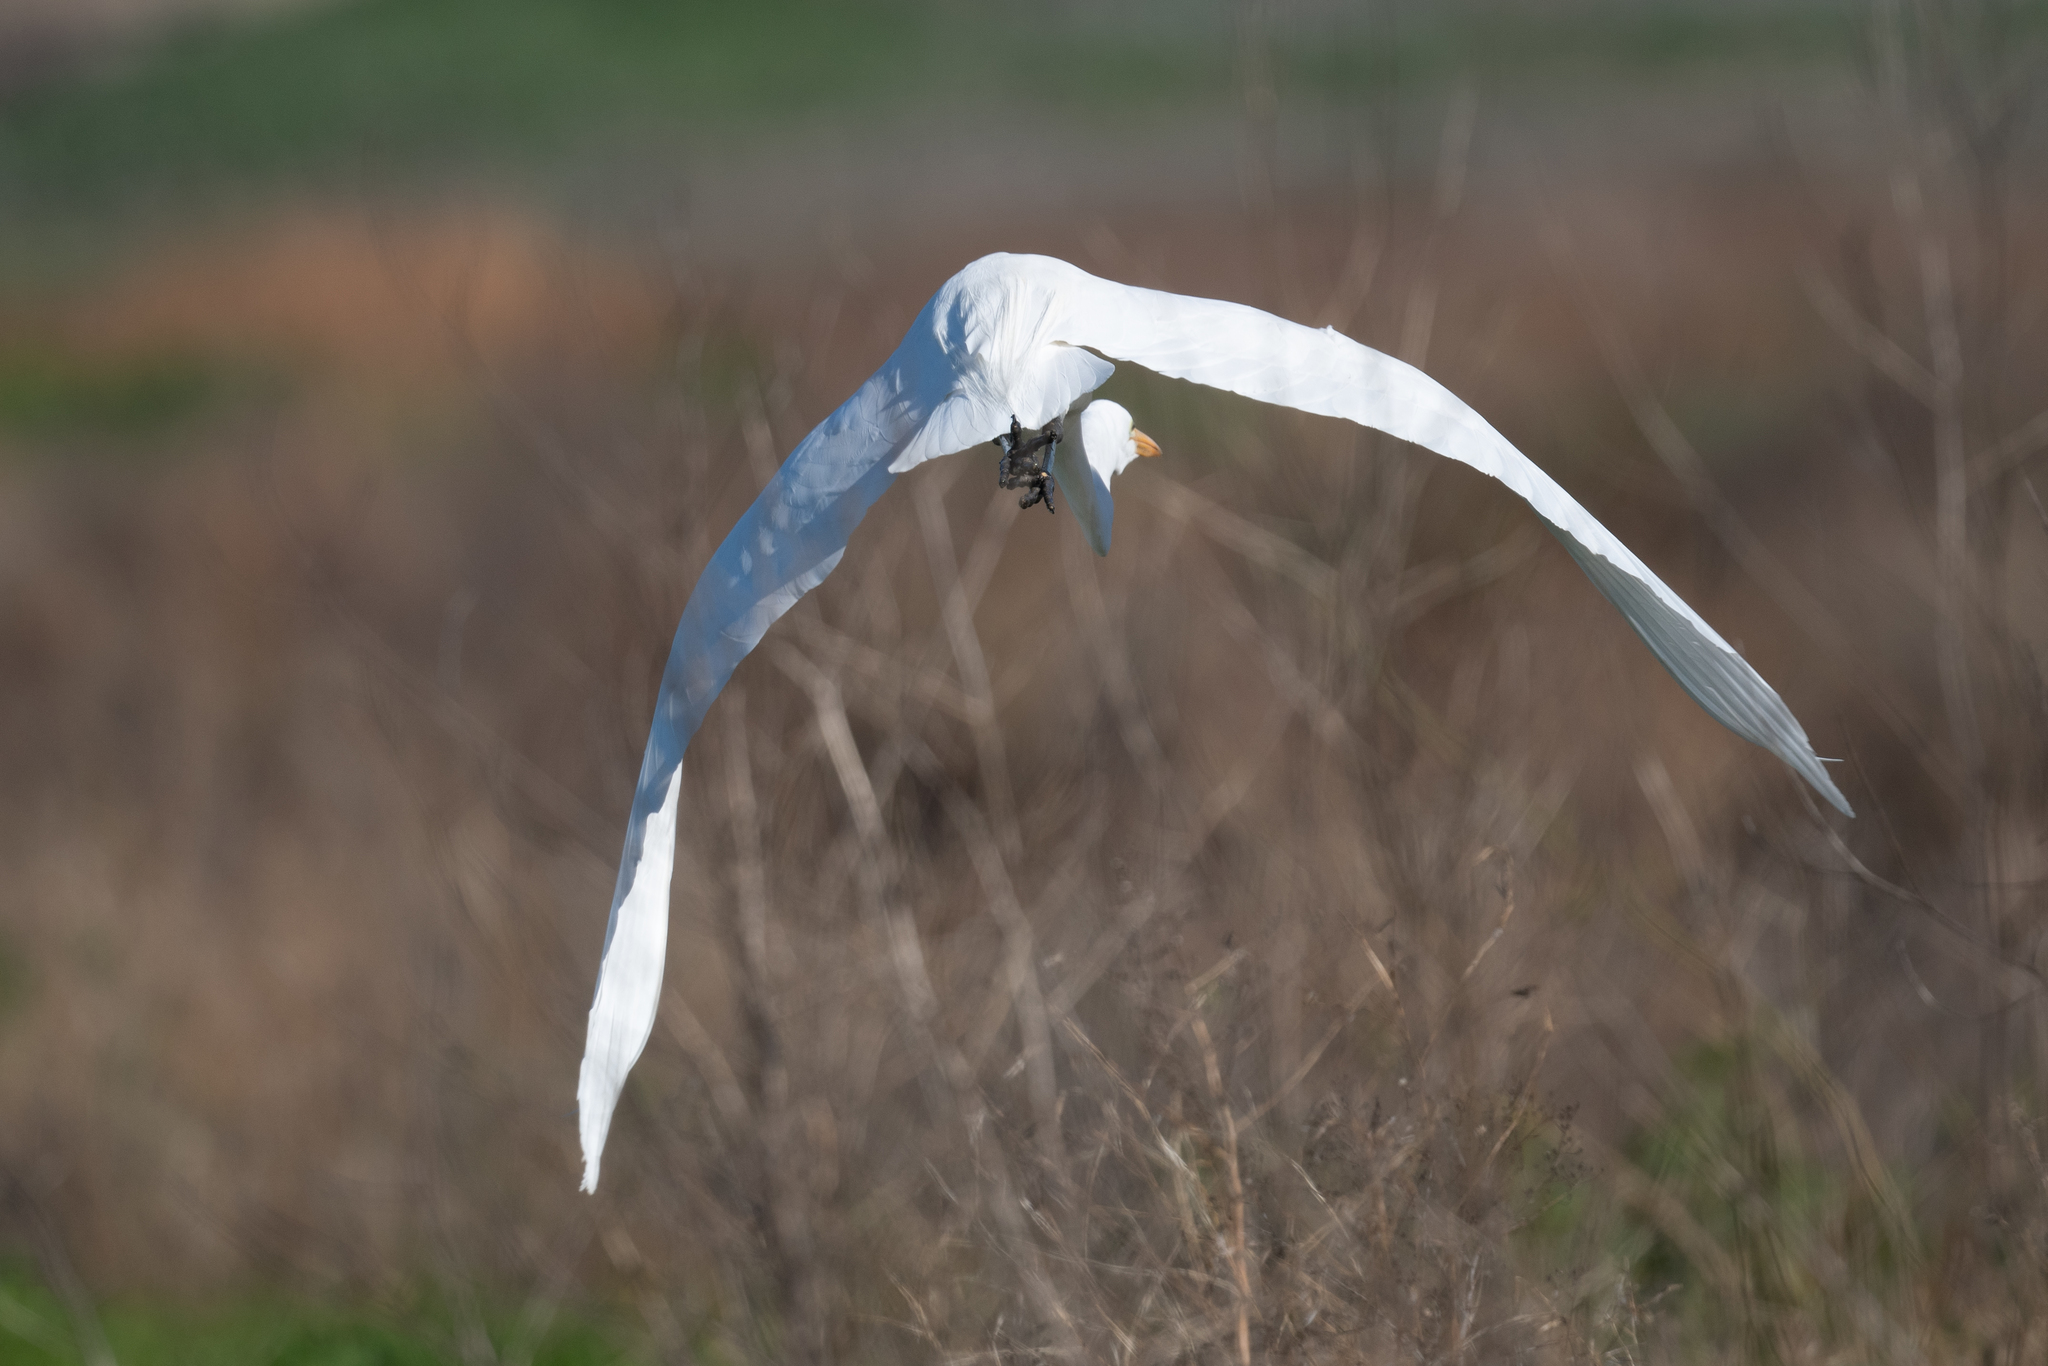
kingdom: Animalia
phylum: Chordata
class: Aves
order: Pelecaniformes
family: Ardeidae
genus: Ardea
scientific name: Ardea alba
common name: Great egret
